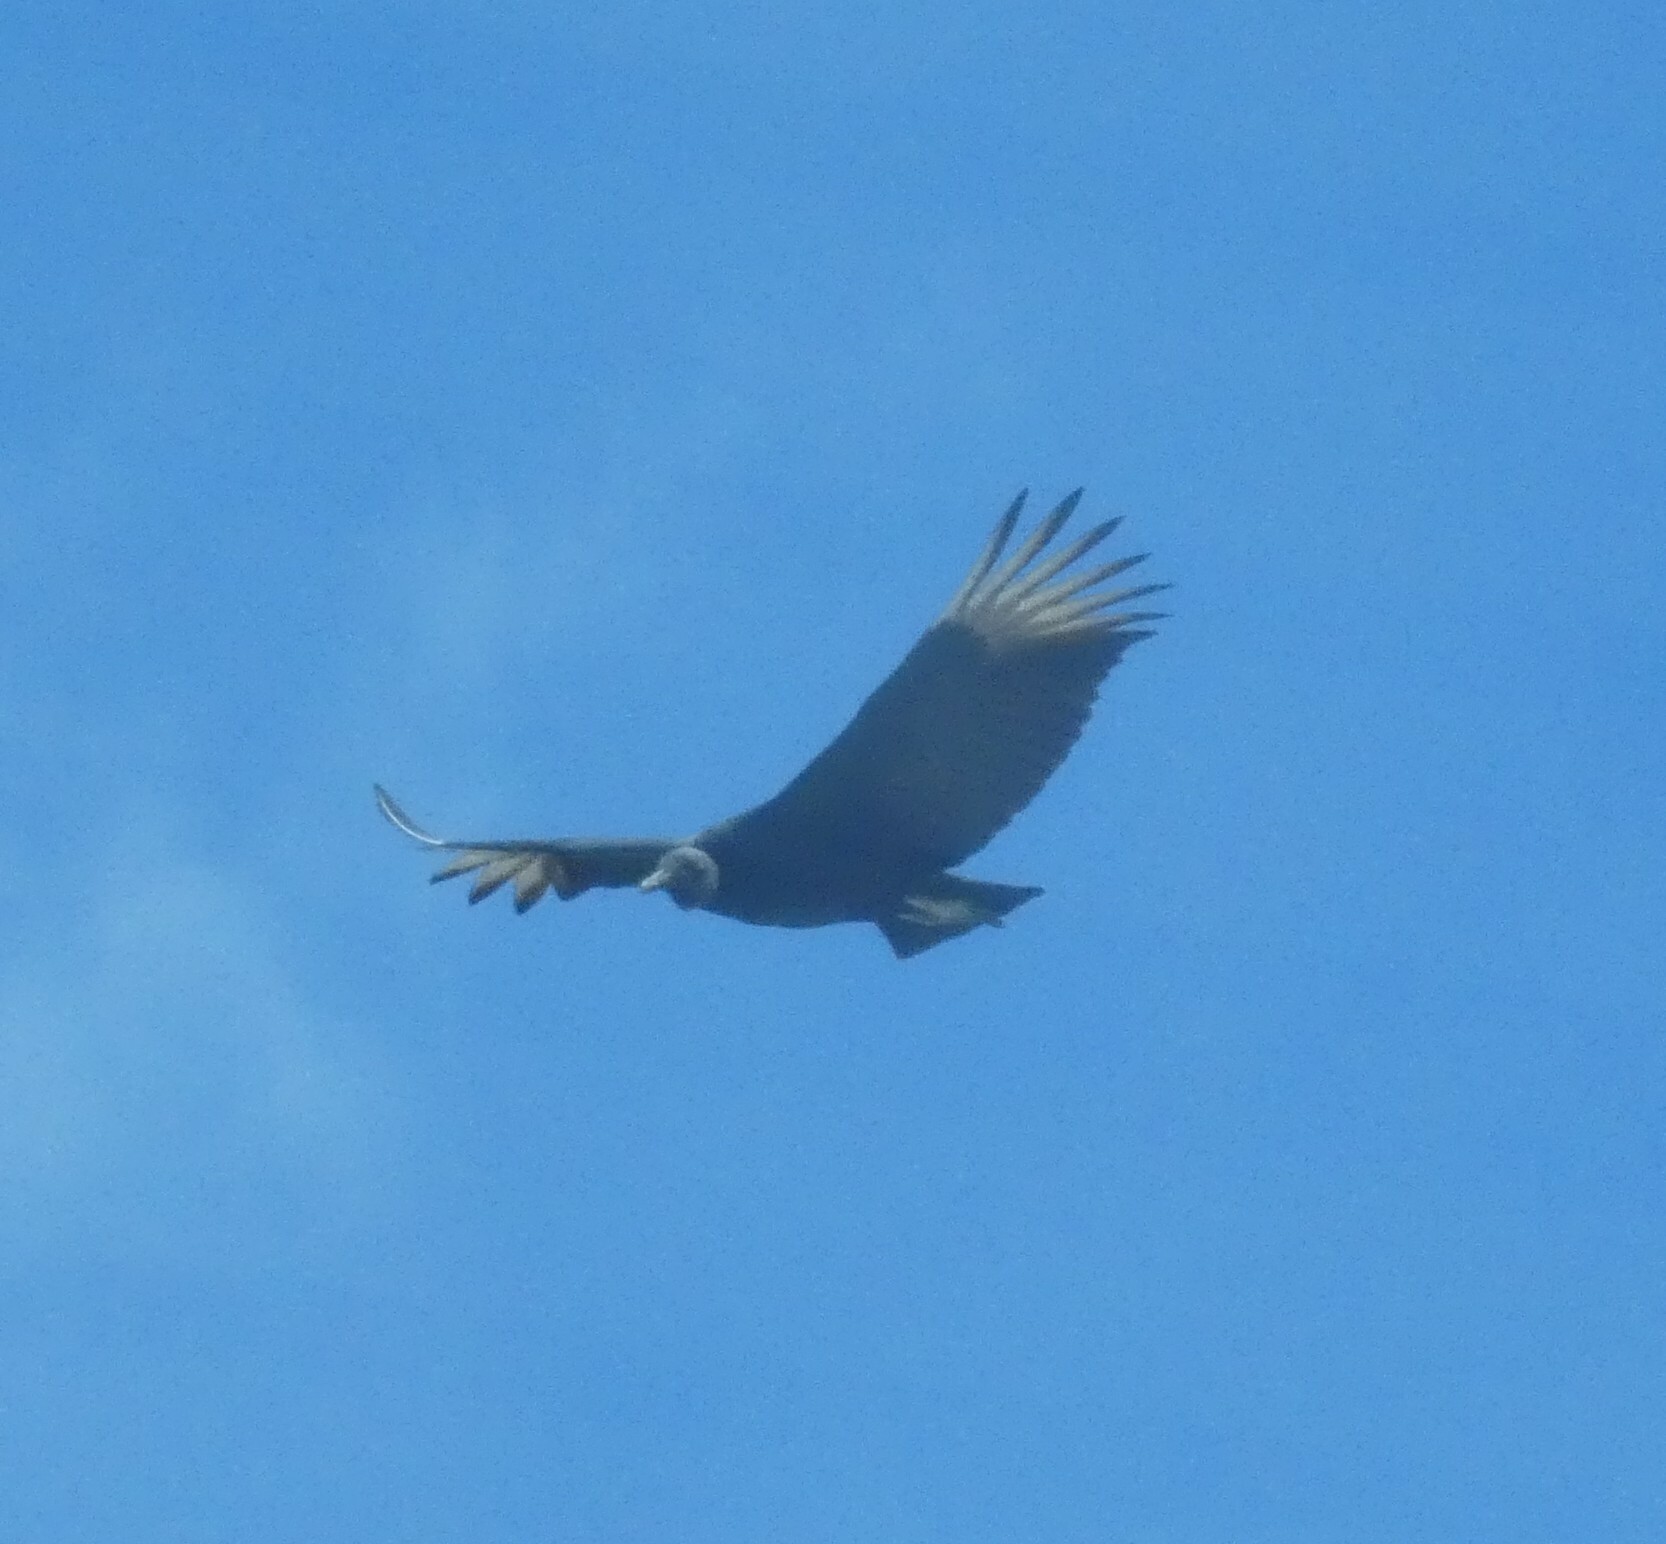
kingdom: Animalia
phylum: Chordata
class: Aves
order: Accipitriformes
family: Cathartidae
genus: Coragyps
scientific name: Coragyps atratus
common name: Black vulture
